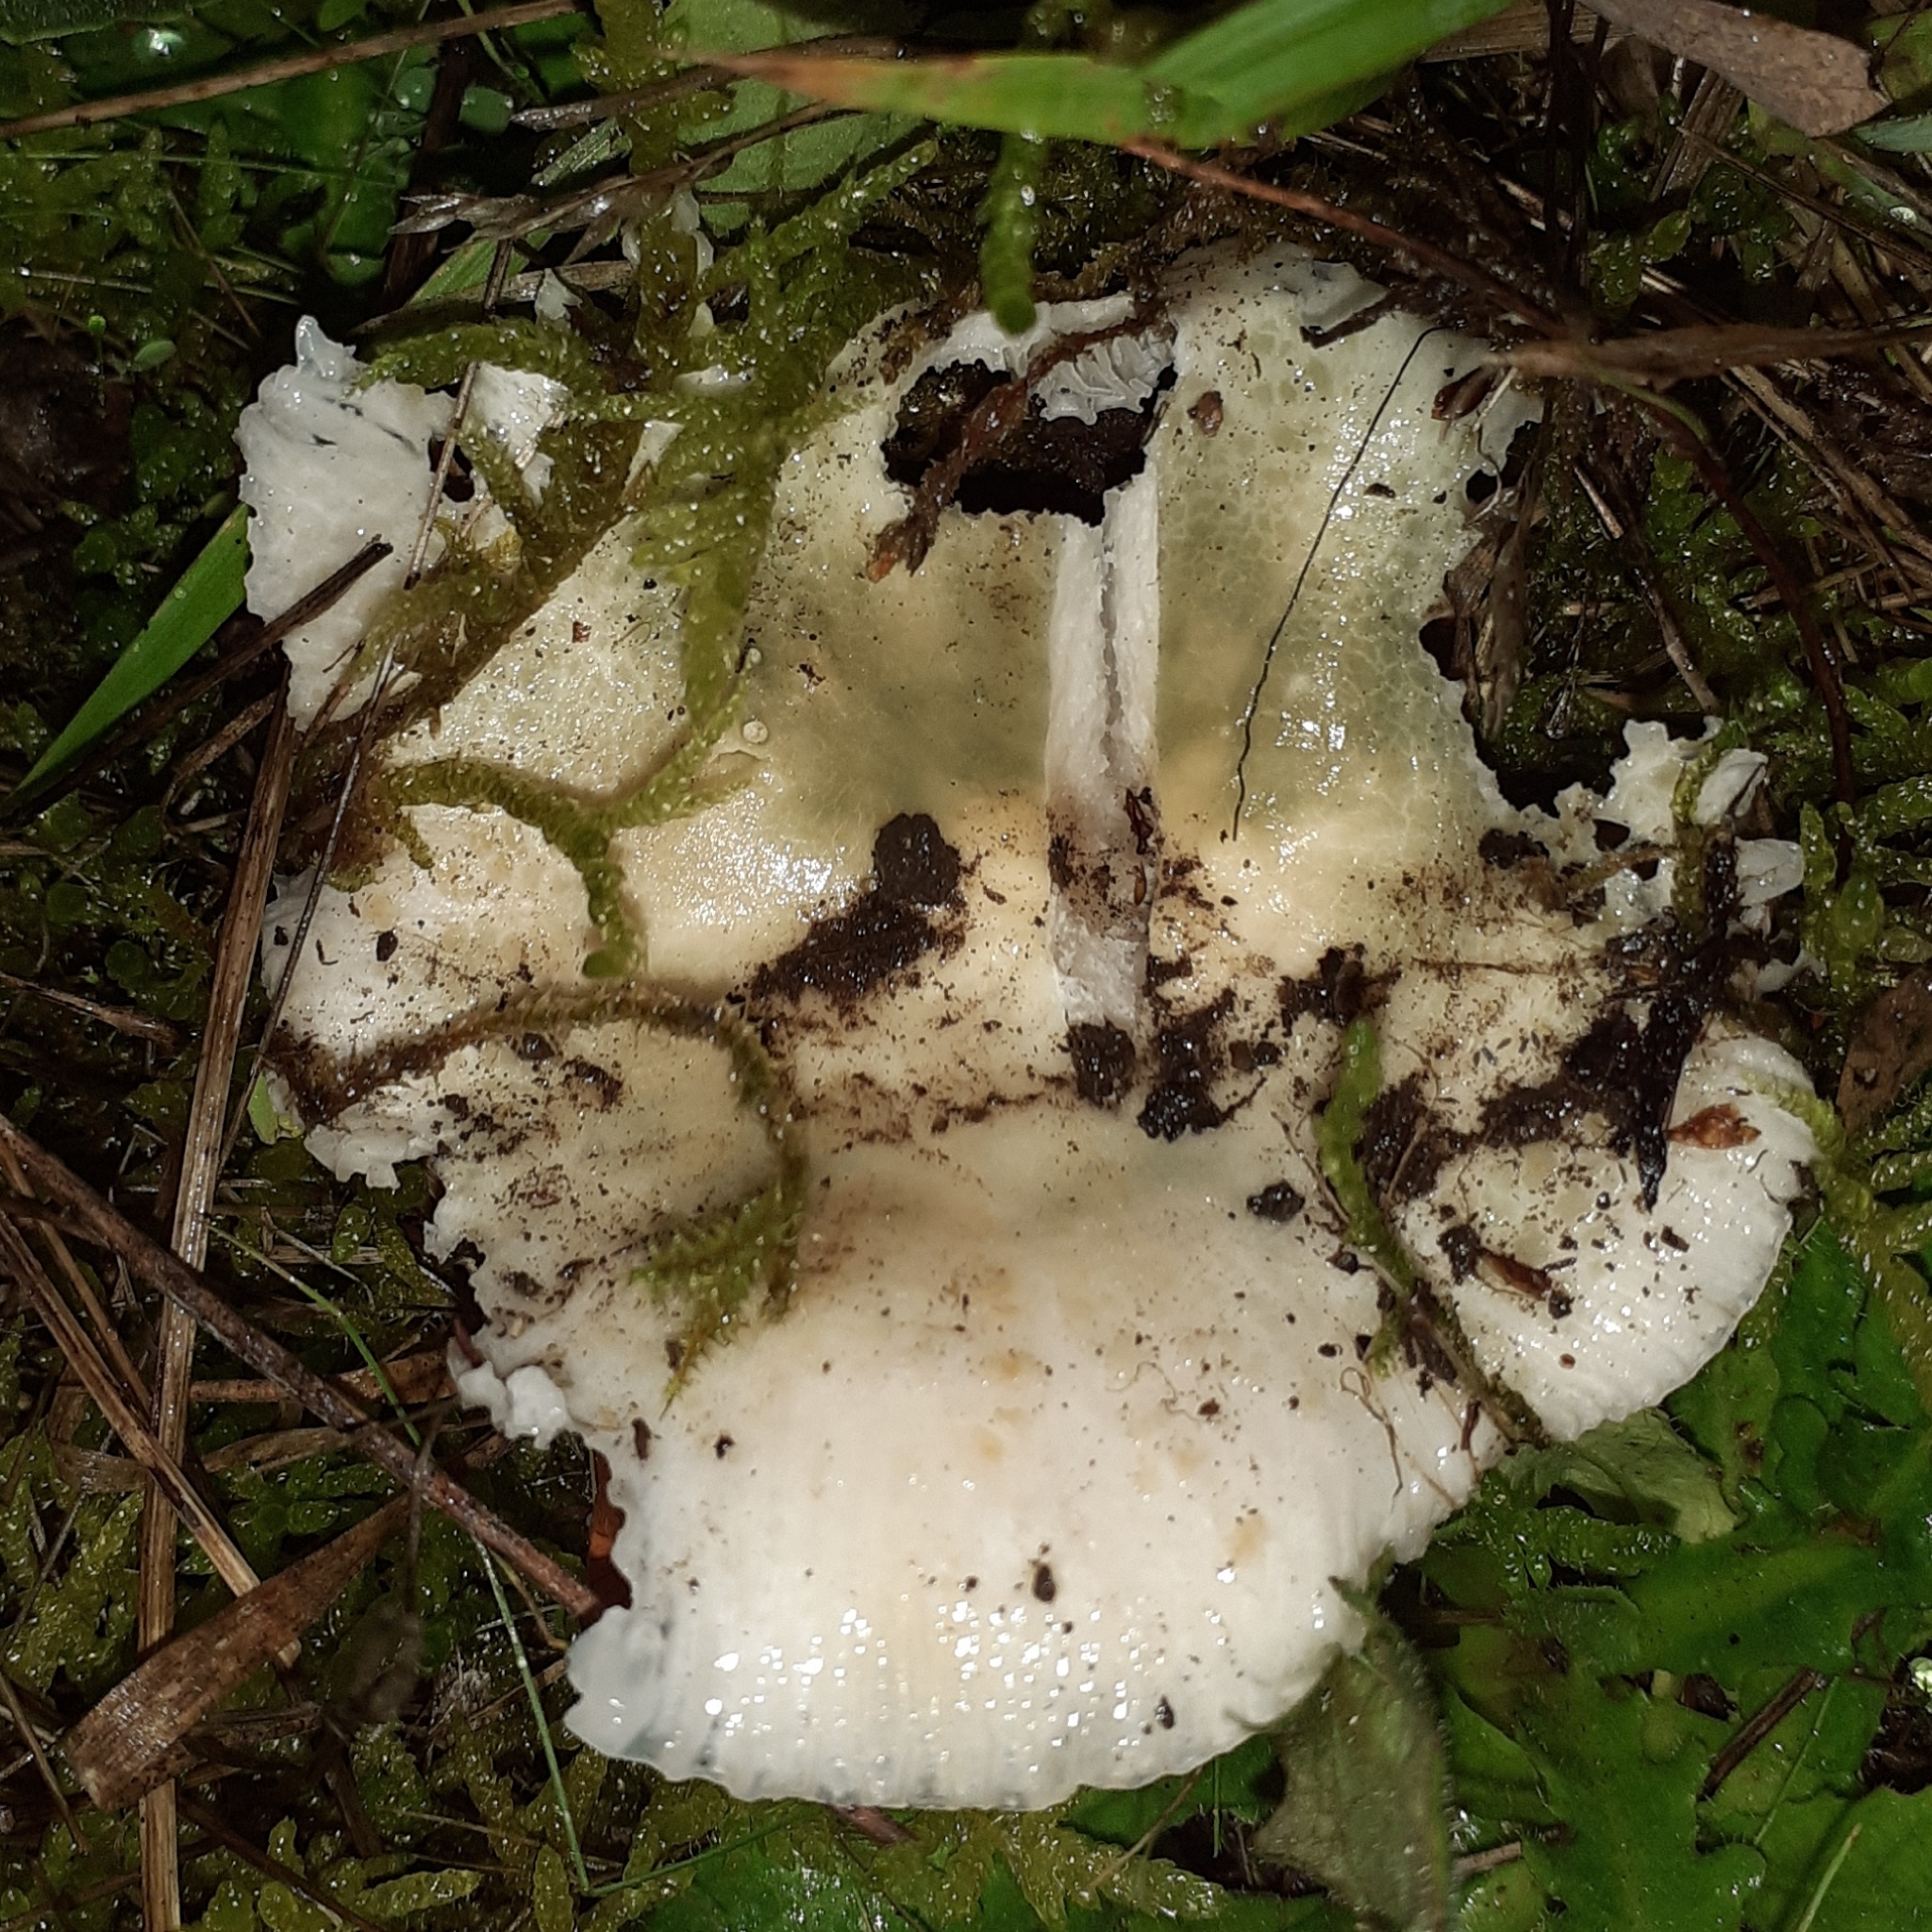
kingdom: Fungi
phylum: Basidiomycota
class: Agaricomycetes
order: Russulales
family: Russulaceae
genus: Russula
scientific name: Russula virescens
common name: Greencracked brittlegill
